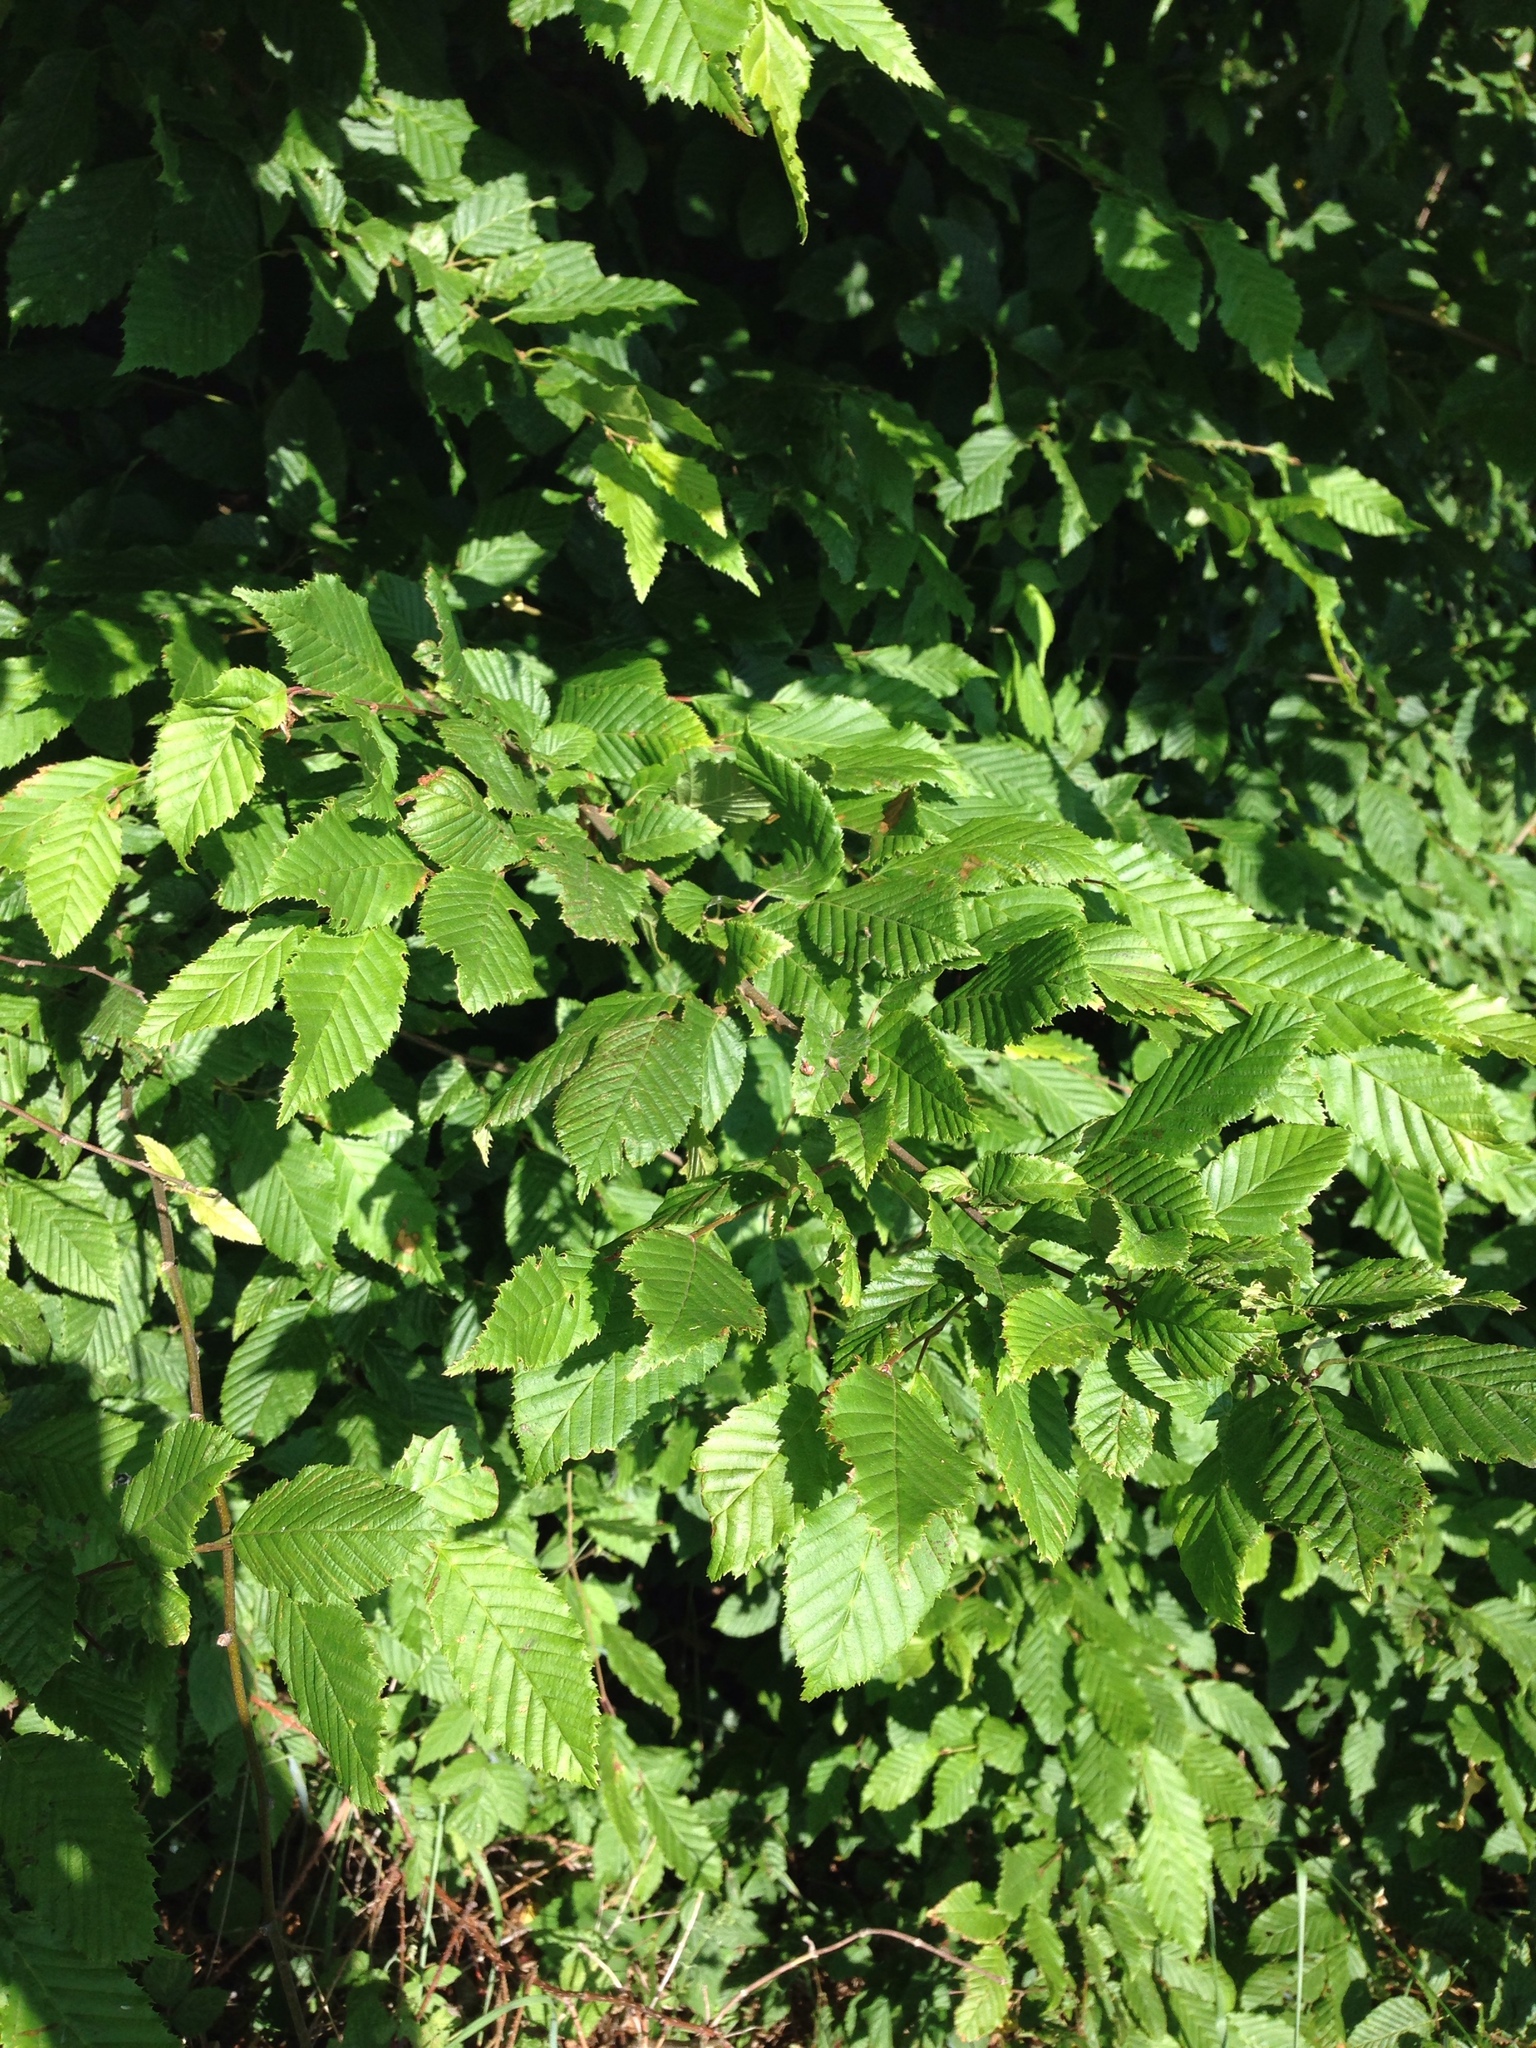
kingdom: Plantae
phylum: Tracheophyta
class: Magnoliopsida
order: Fagales
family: Betulaceae
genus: Carpinus
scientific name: Carpinus betulus
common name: Hornbeam
